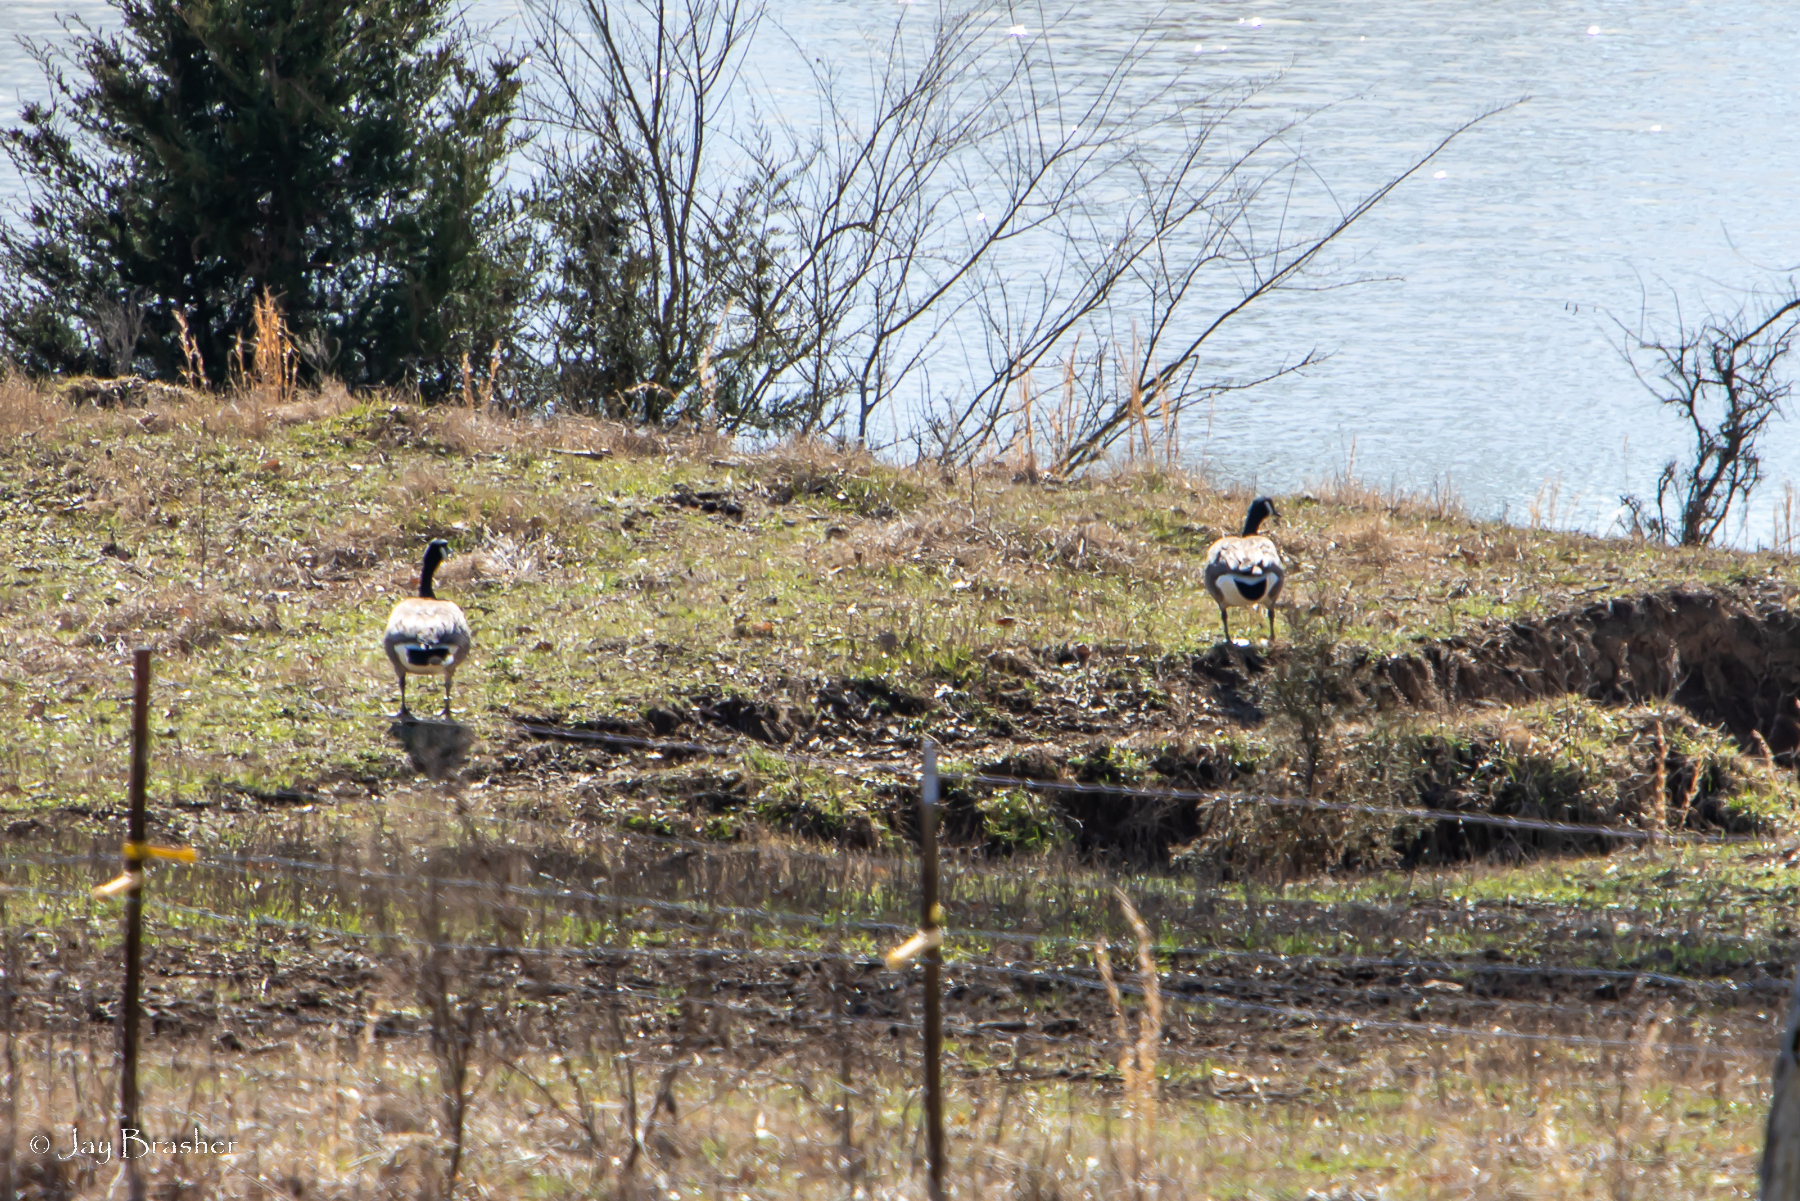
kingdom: Animalia
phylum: Chordata
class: Aves
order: Anseriformes
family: Anatidae
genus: Branta
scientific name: Branta canadensis
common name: Canada goose
